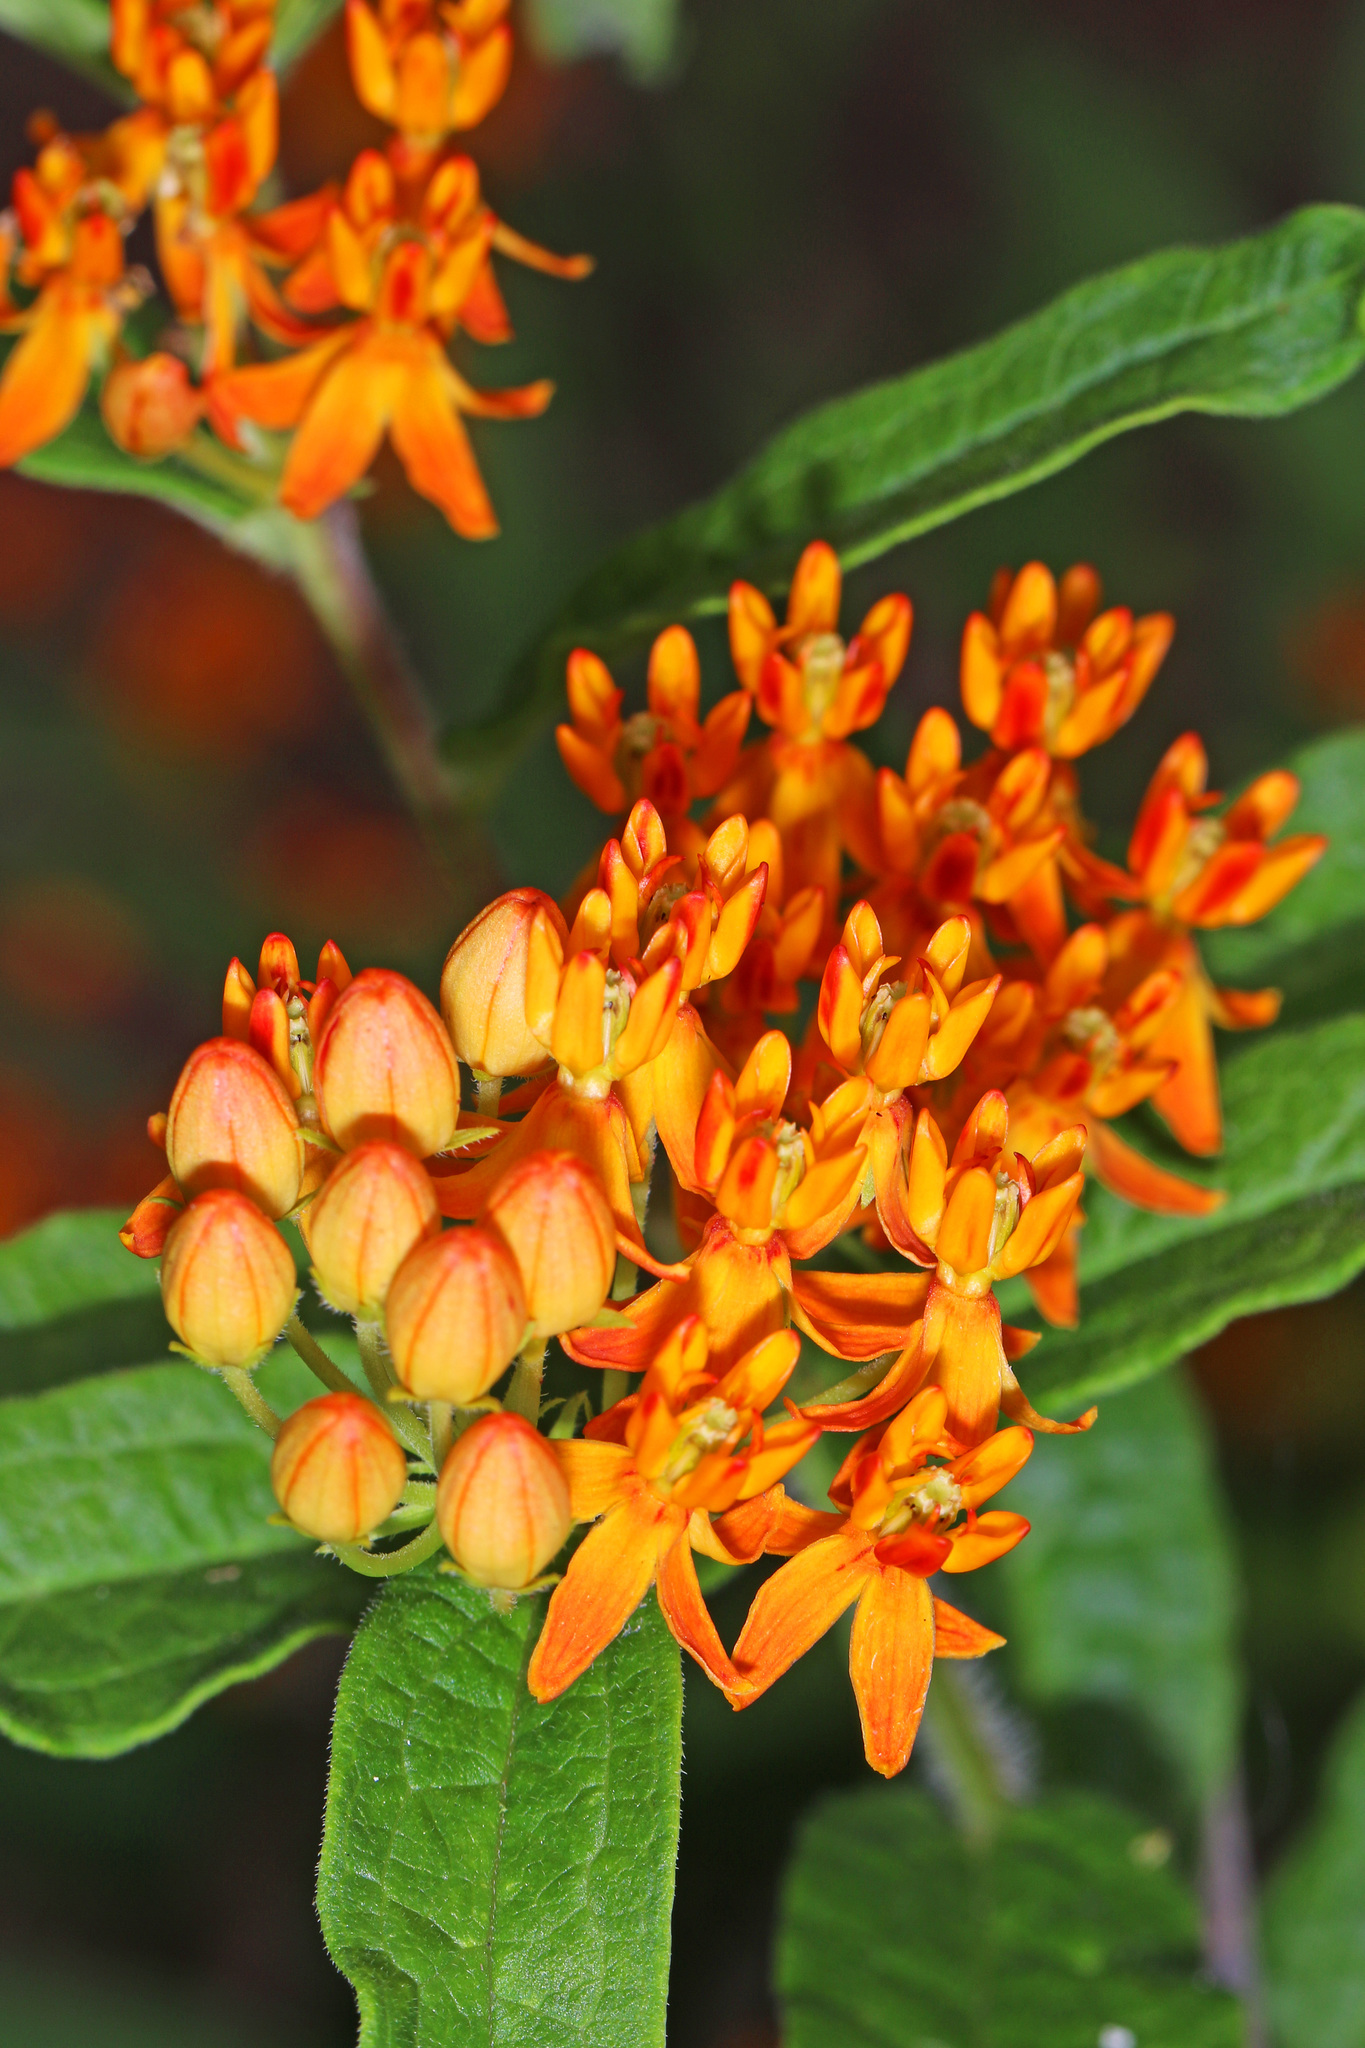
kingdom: Plantae
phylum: Tracheophyta
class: Magnoliopsida
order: Gentianales
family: Apocynaceae
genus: Asclepias
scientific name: Asclepias tuberosa
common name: Butterfly milkweed
